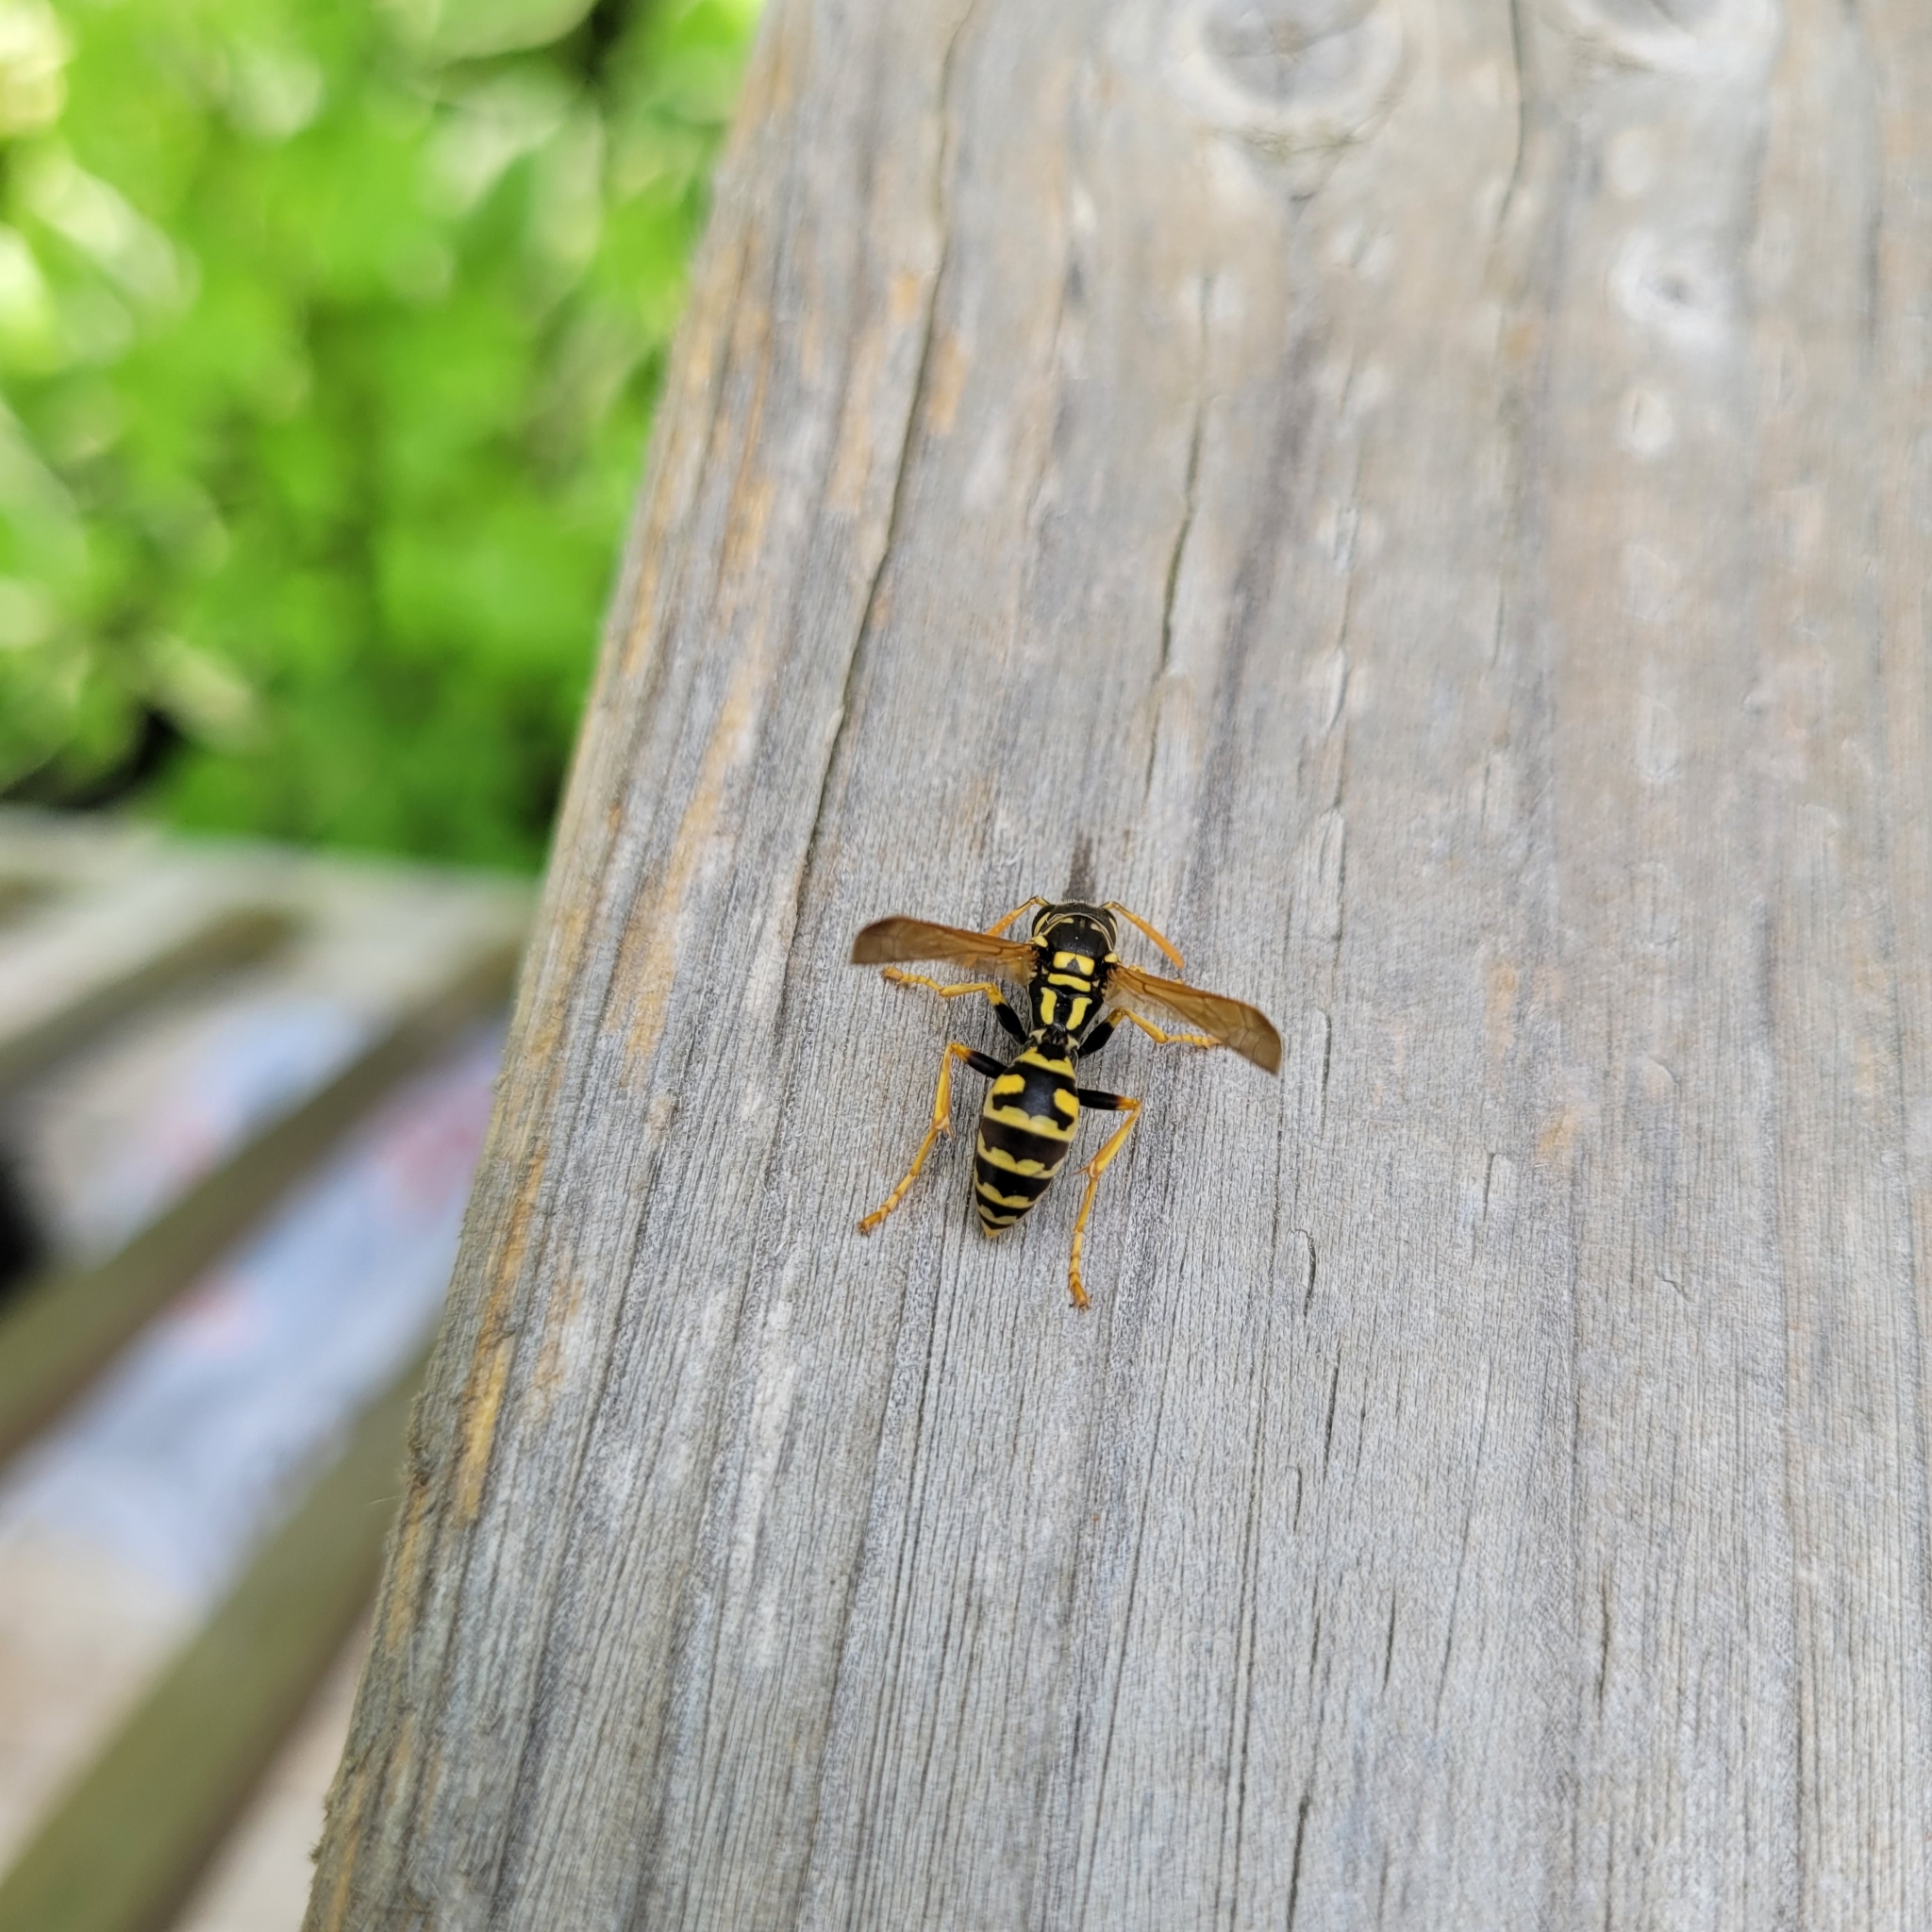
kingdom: Animalia
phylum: Arthropoda
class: Insecta
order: Hymenoptera
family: Eumenidae
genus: Polistes
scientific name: Polistes dominula
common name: Paper wasp
